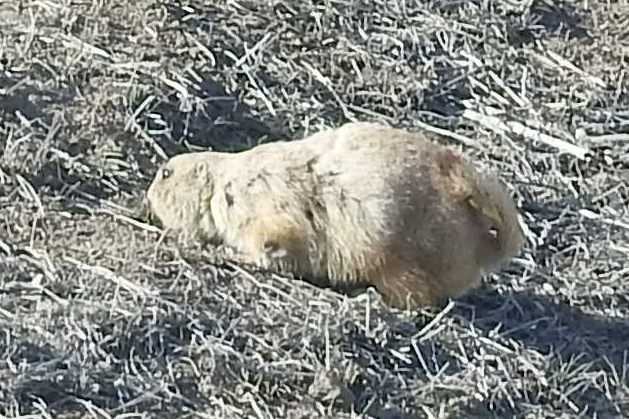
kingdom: Animalia
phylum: Chordata
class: Mammalia
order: Rodentia
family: Sciuridae
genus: Cynomys
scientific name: Cynomys ludovicianus
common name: Black-tailed prairie dog
